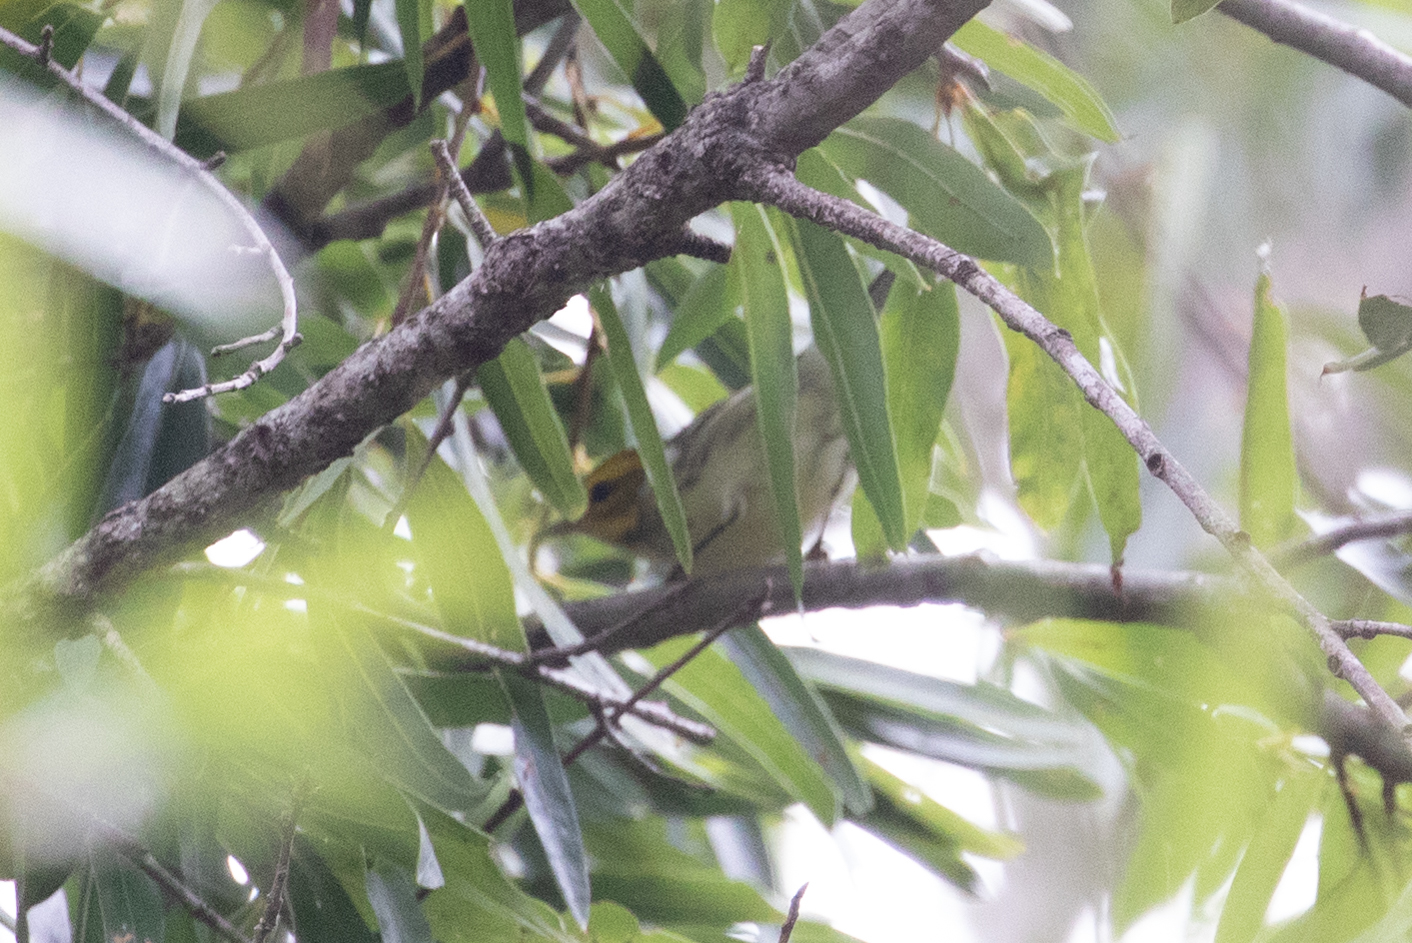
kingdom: Animalia
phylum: Chordata
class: Aves
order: Passeriformes
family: Parulidae
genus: Setophaga
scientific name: Setophaga virens
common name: Black-throated green warbler
